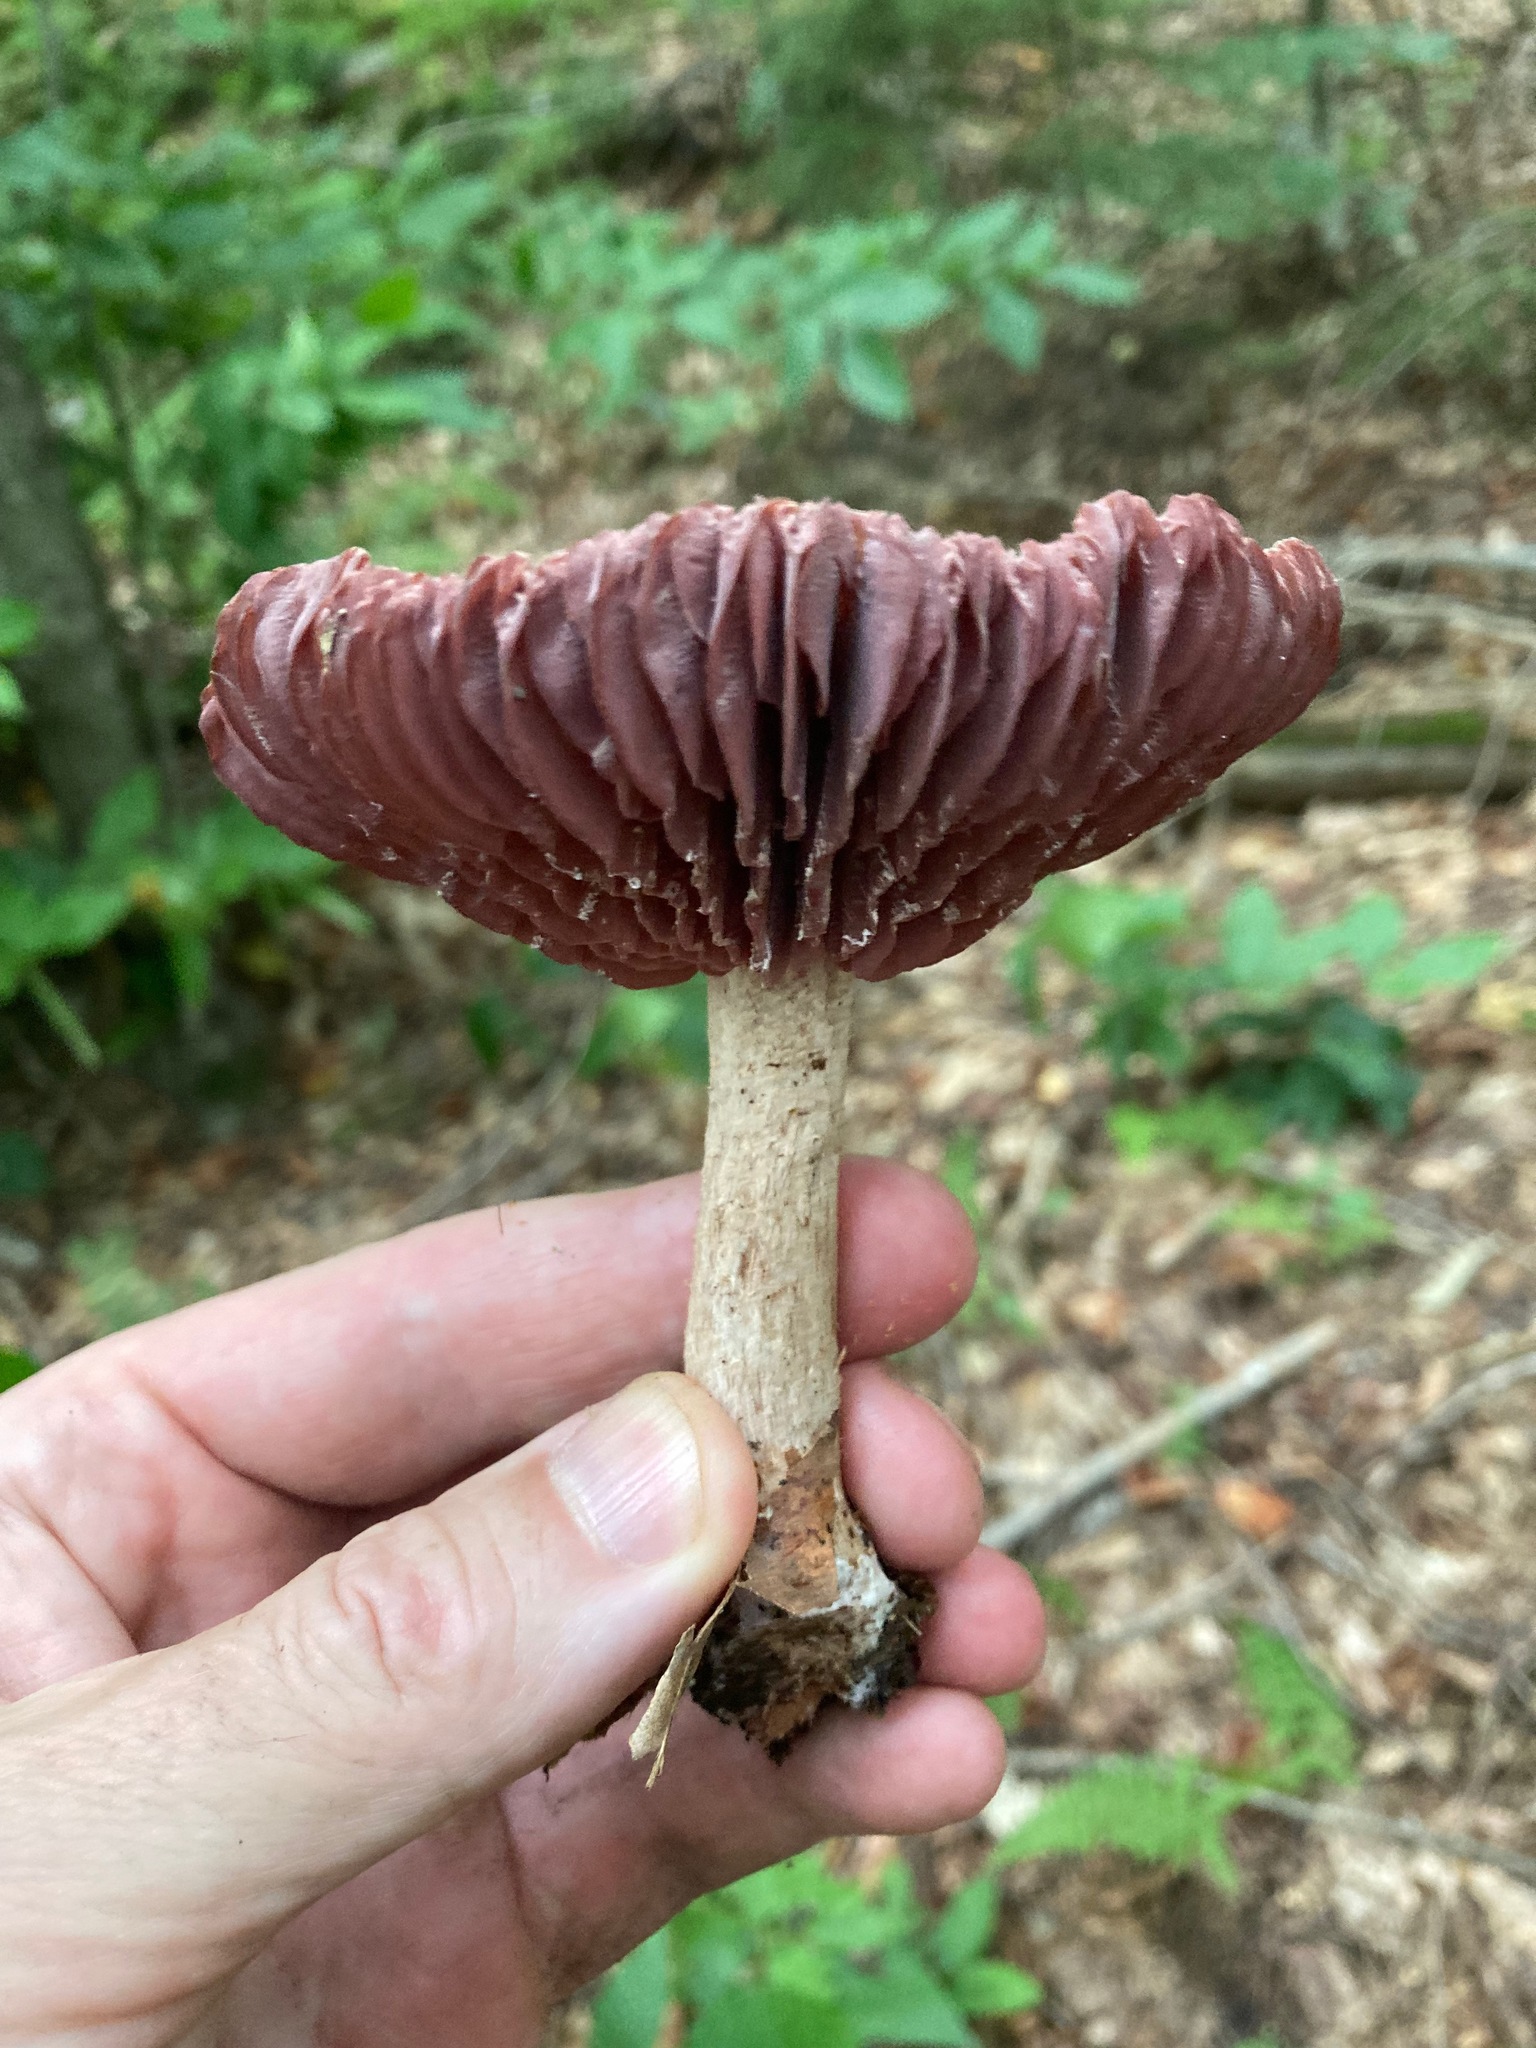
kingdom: Fungi
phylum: Basidiomycota
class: Agaricomycetes
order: Agaricales
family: Hydnangiaceae
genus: Laccaria
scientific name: Laccaria ochropurpurea
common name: Purple laccaria
